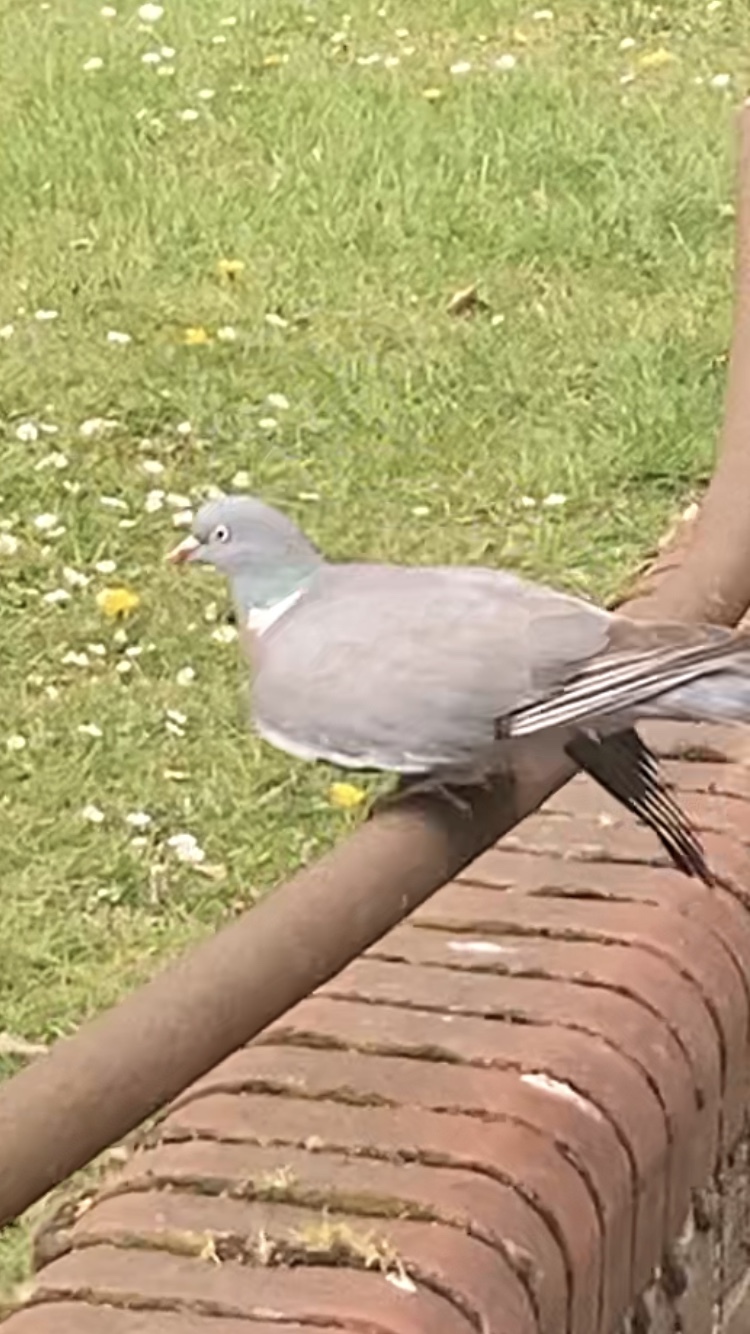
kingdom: Animalia
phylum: Chordata
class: Aves
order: Columbiformes
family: Columbidae
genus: Columba
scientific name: Columba palumbus
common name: Common wood pigeon
